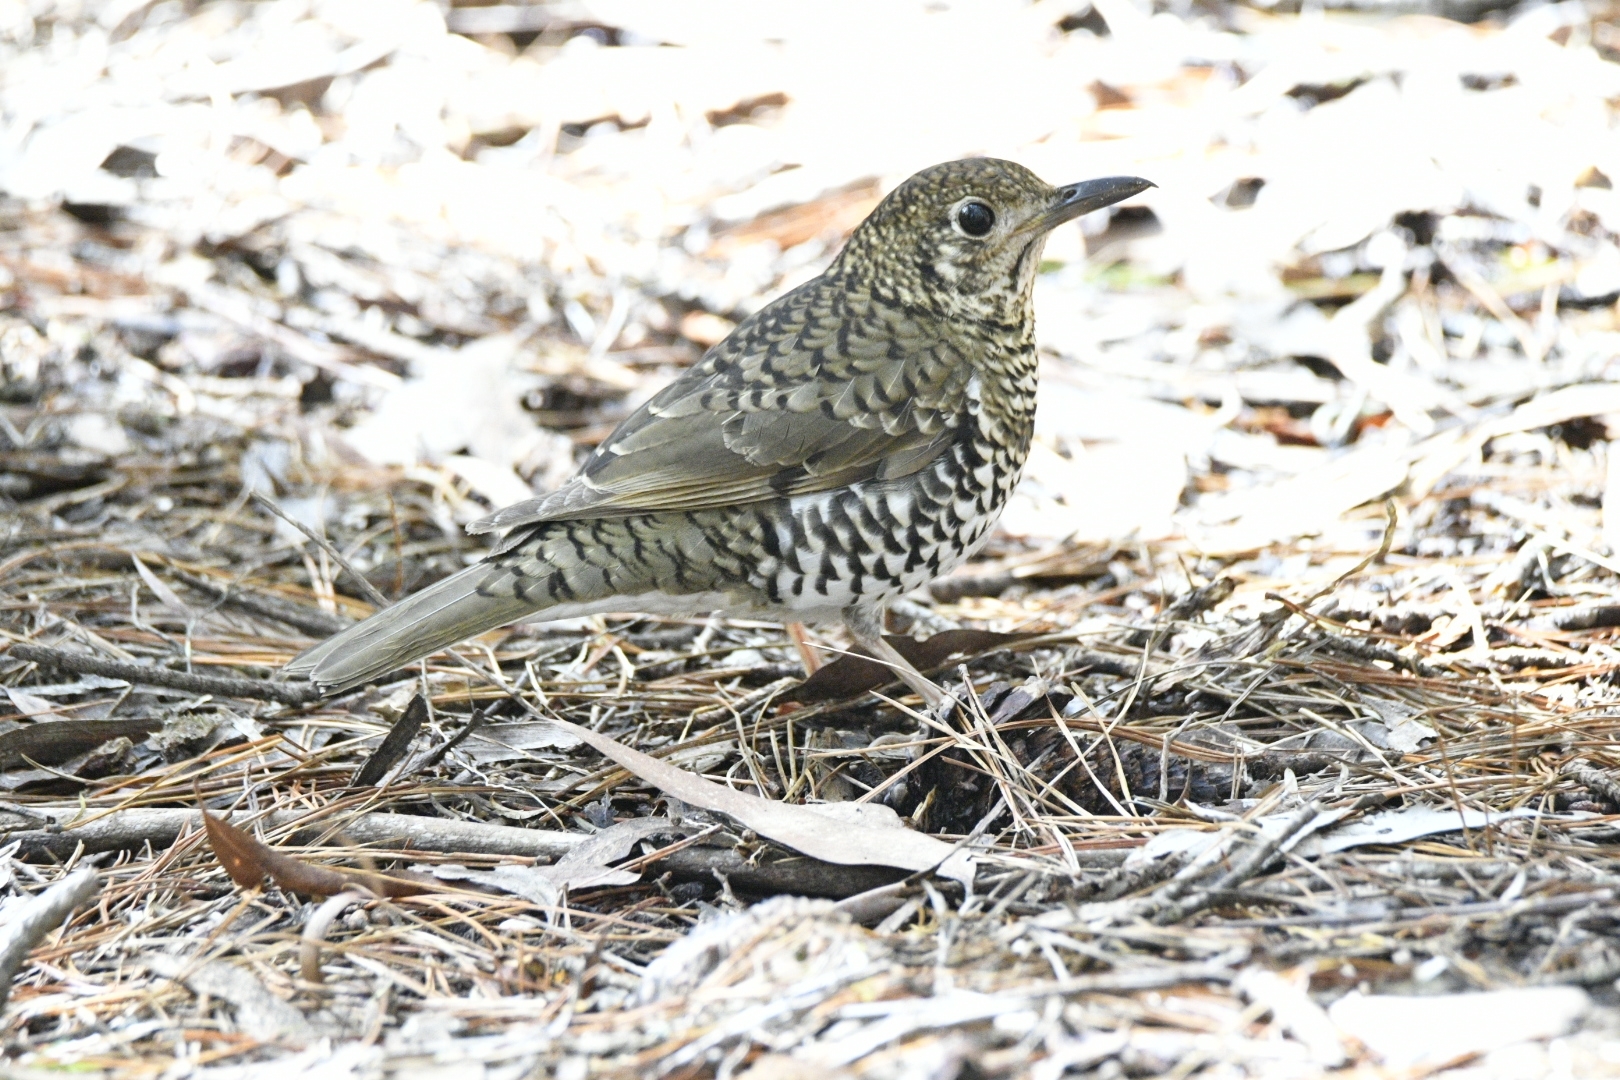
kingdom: Animalia
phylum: Chordata
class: Aves
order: Passeriformes
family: Turdidae
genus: Zoothera
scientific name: Zoothera lunulata
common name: Bassian thrush
